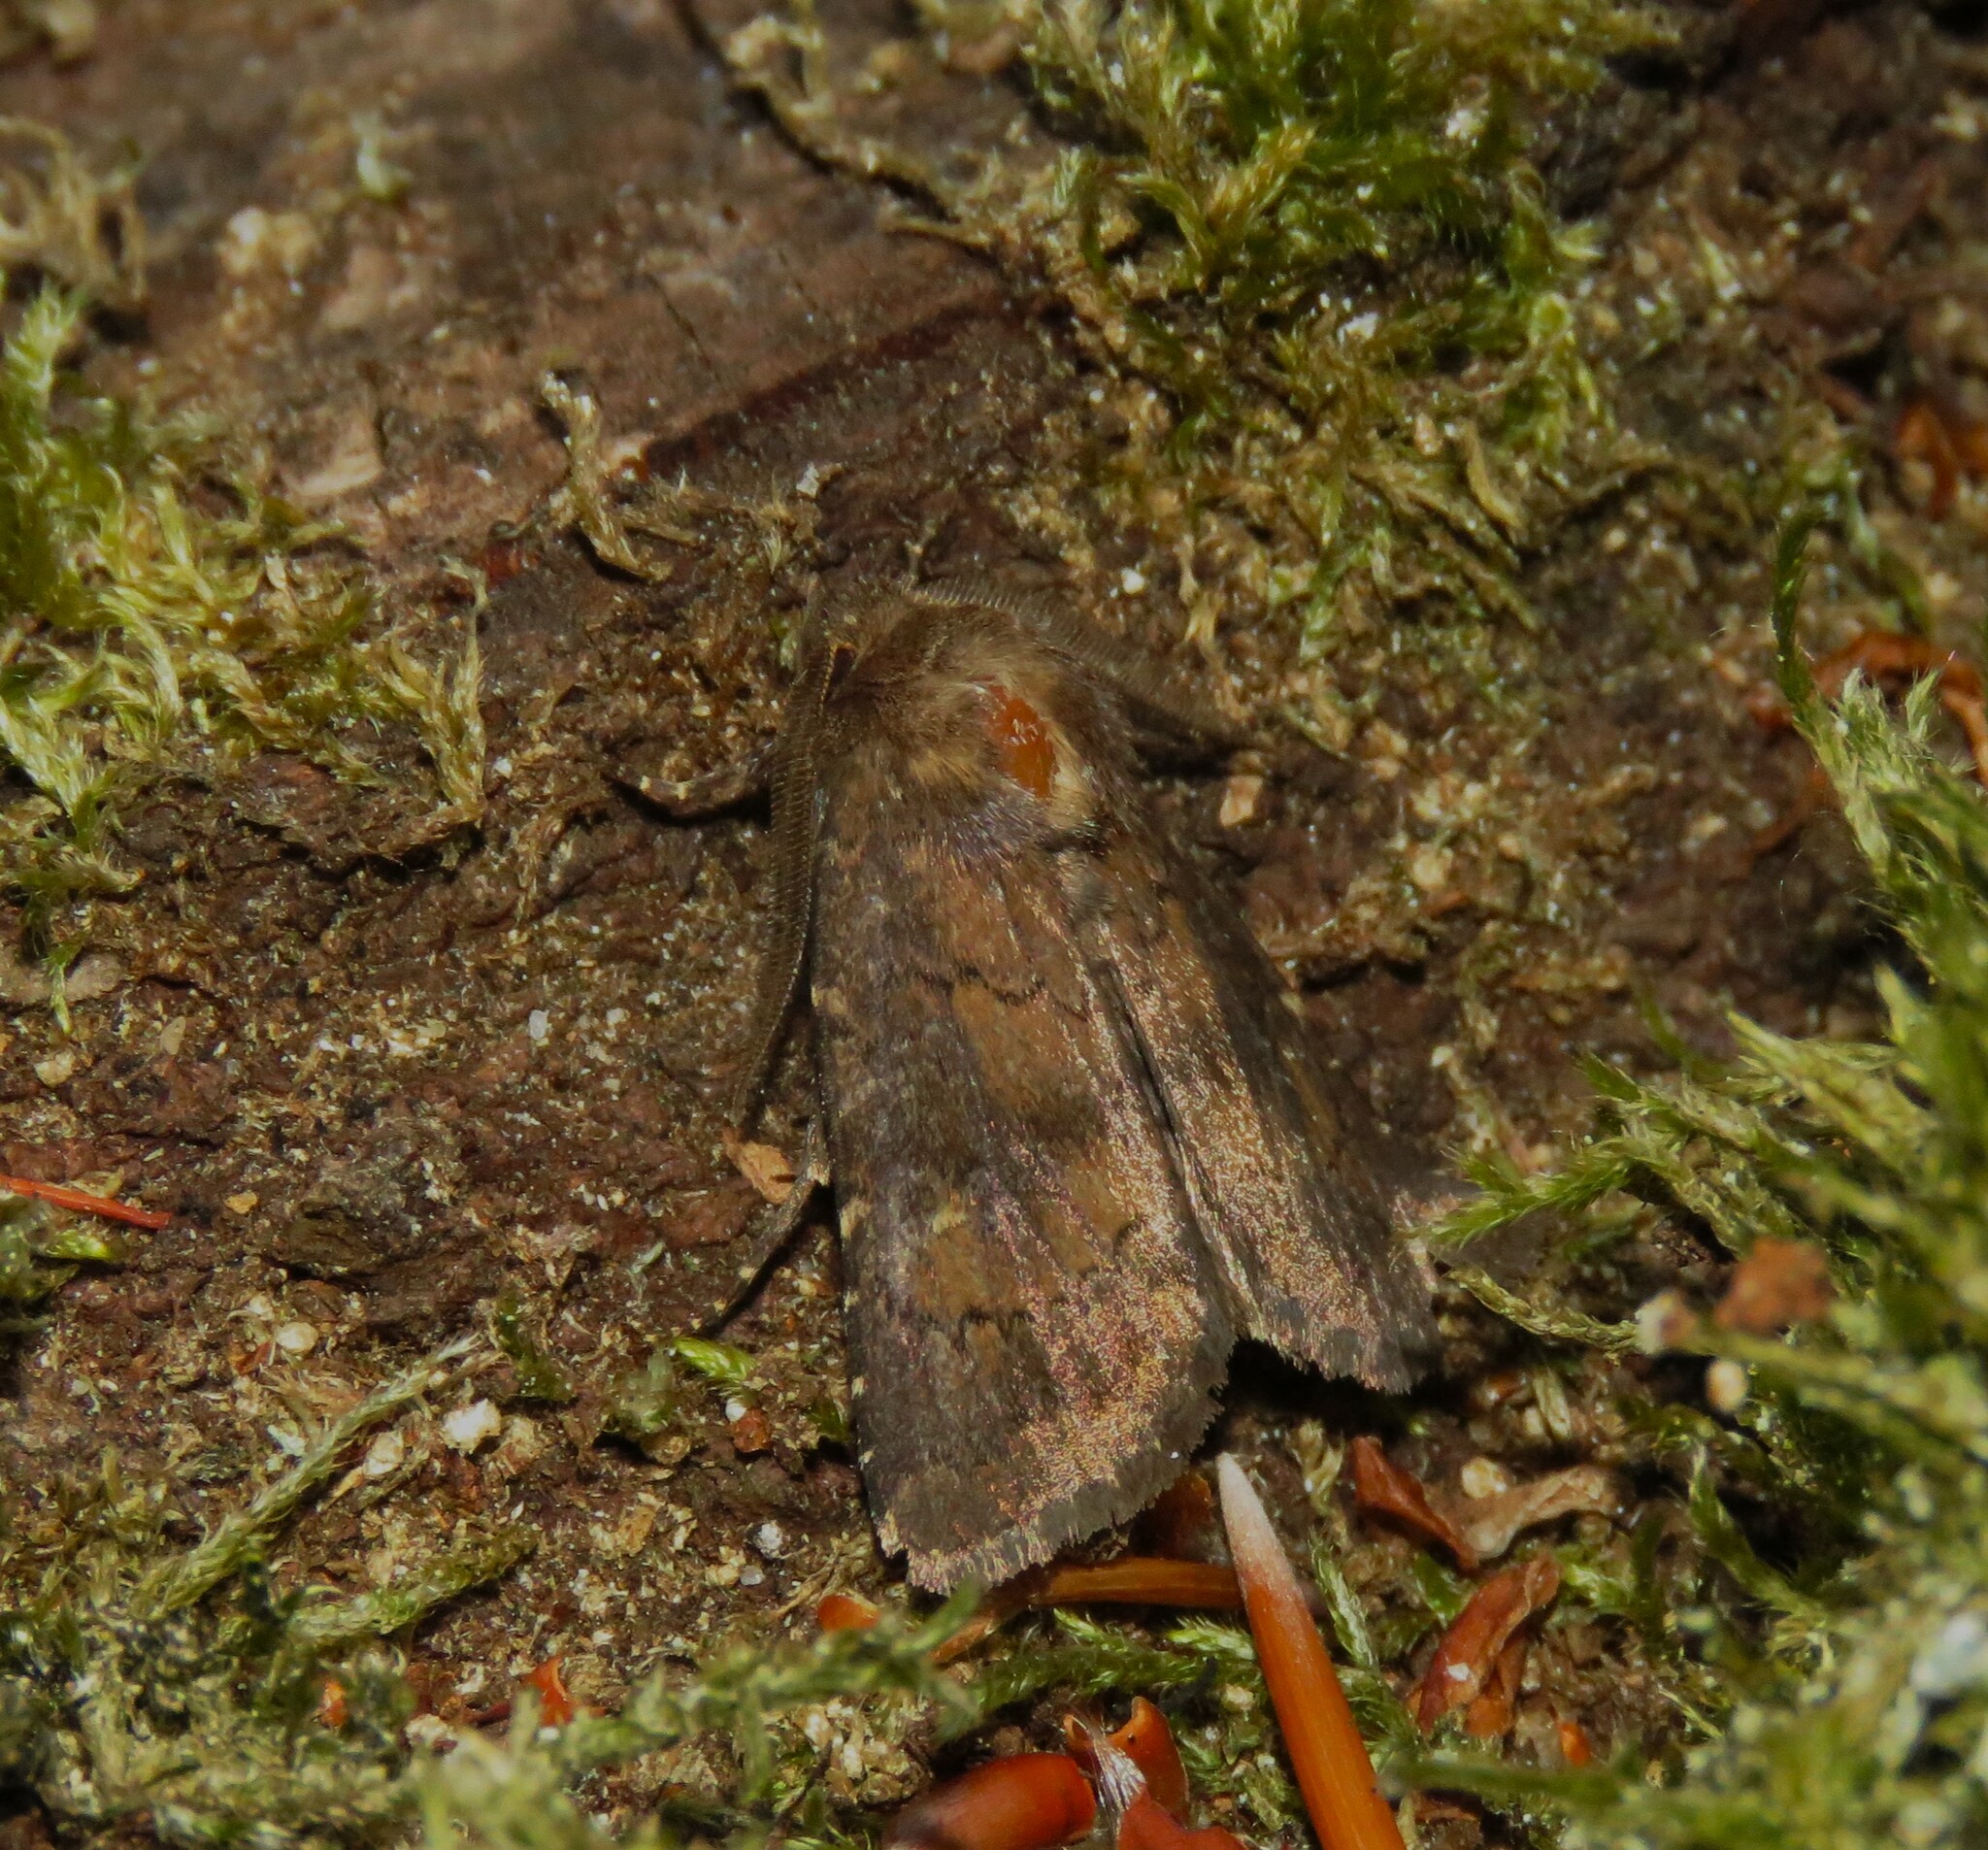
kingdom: Animalia
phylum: Arthropoda
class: Insecta
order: Lepidoptera
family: Noctuidae
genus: Charanyca
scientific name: Charanyca ferruginea
